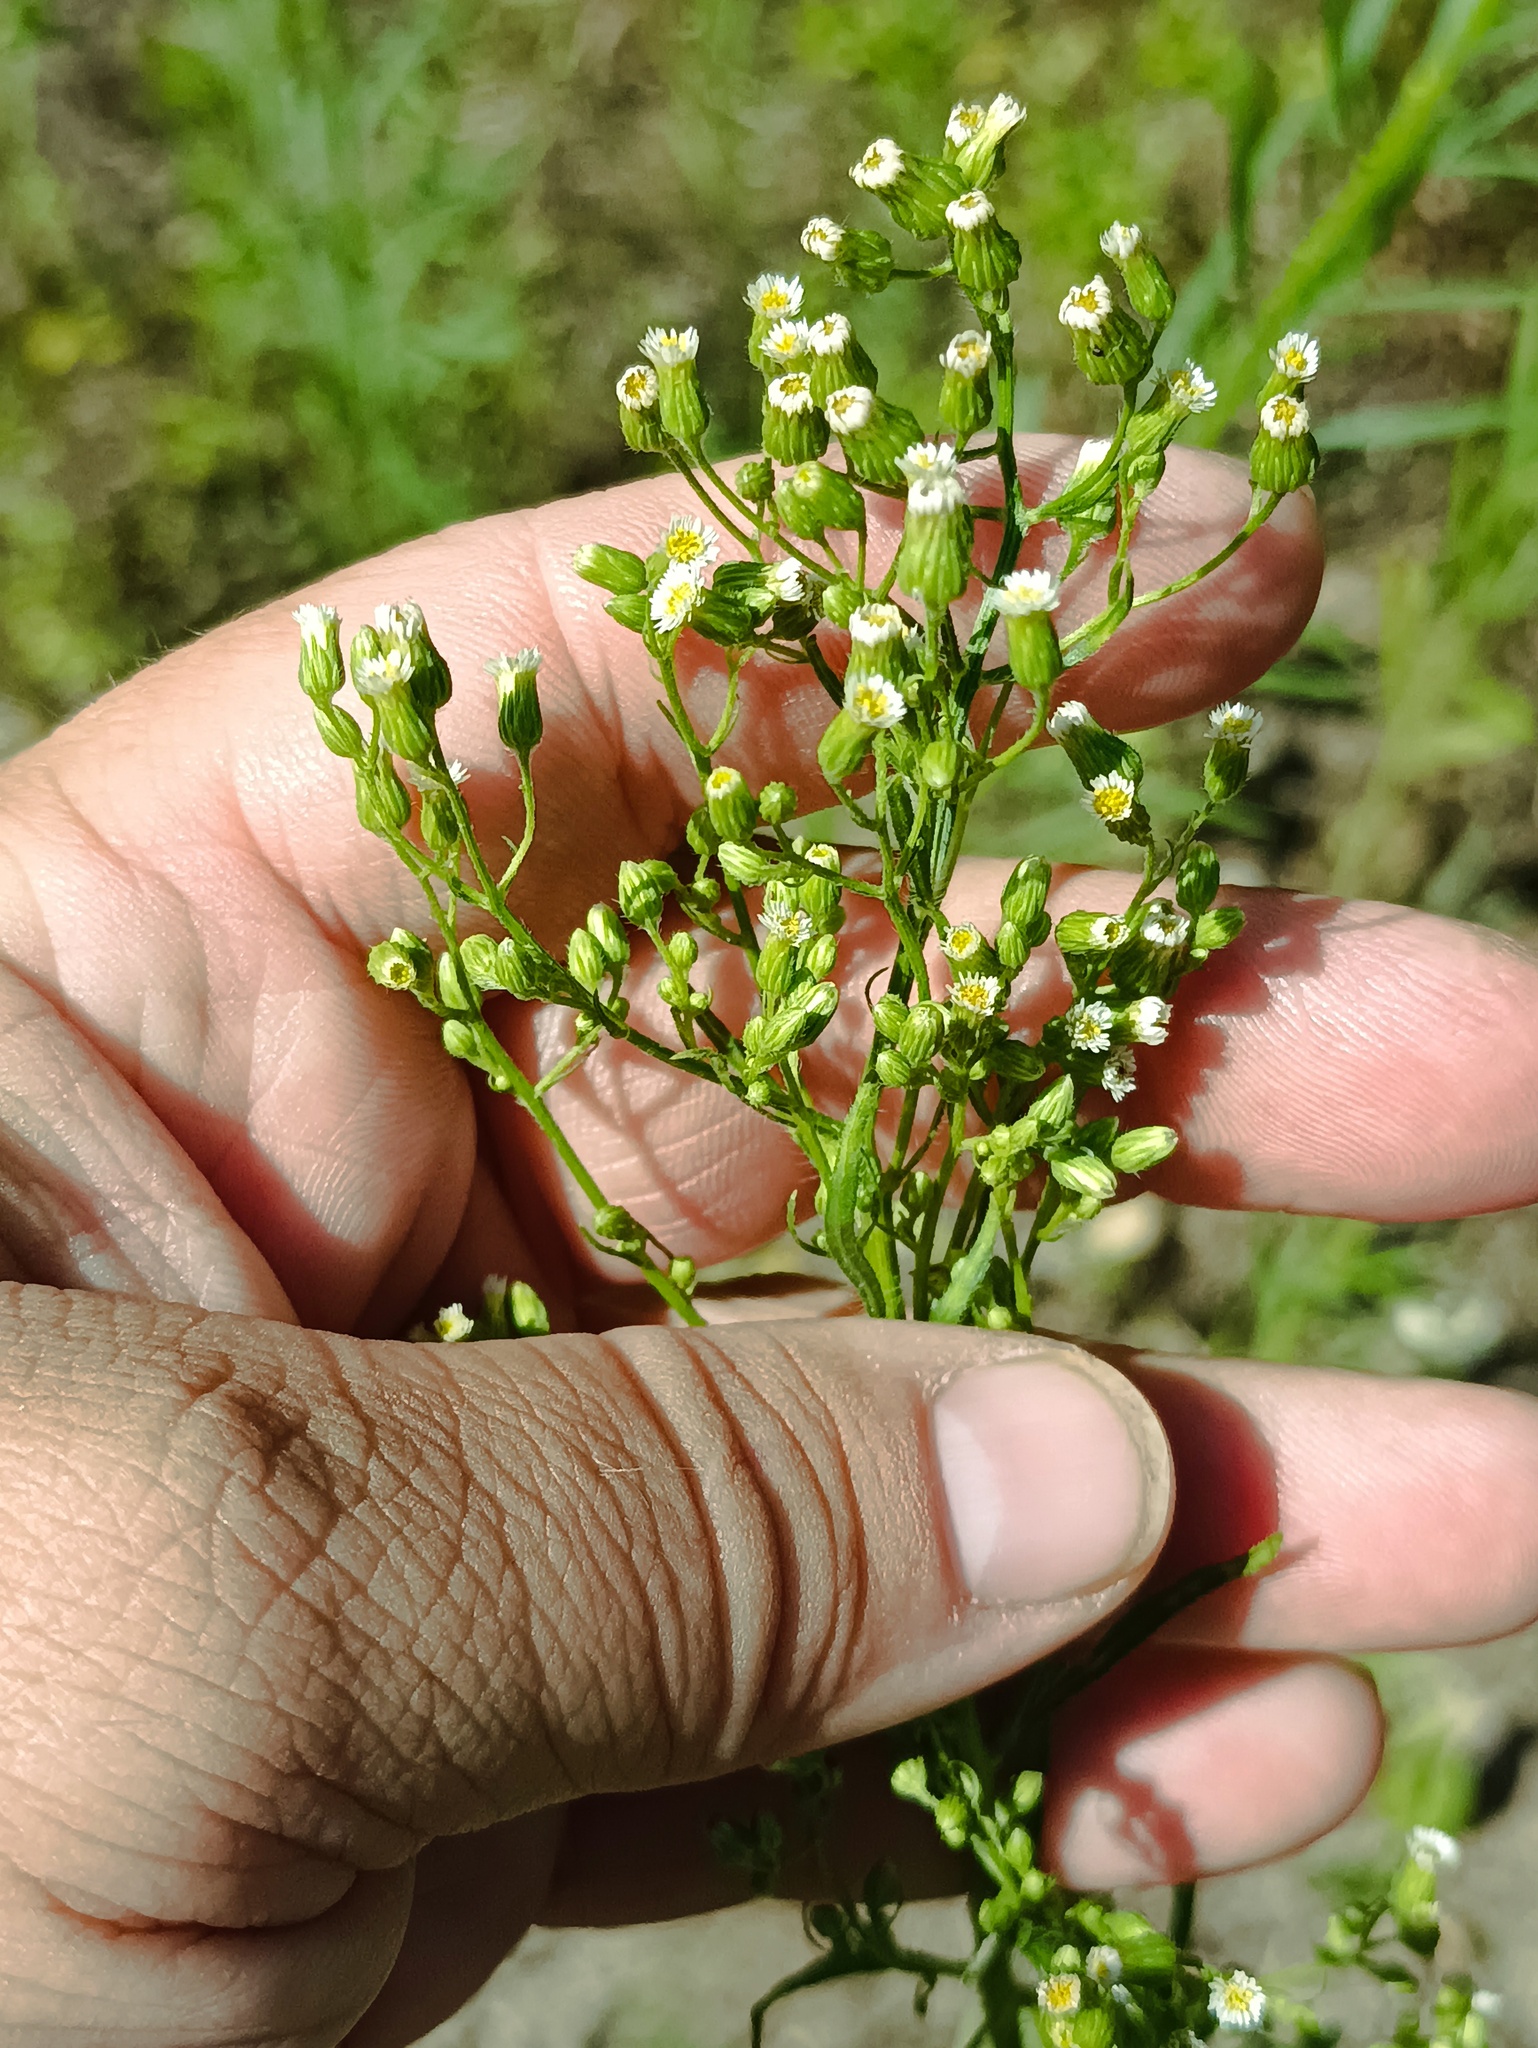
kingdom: Plantae
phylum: Tracheophyta
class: Magnoliopsida
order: Asterales
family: Asteraceae
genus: Erigeron
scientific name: Erigeron canadensis
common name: Canadian fleabane
